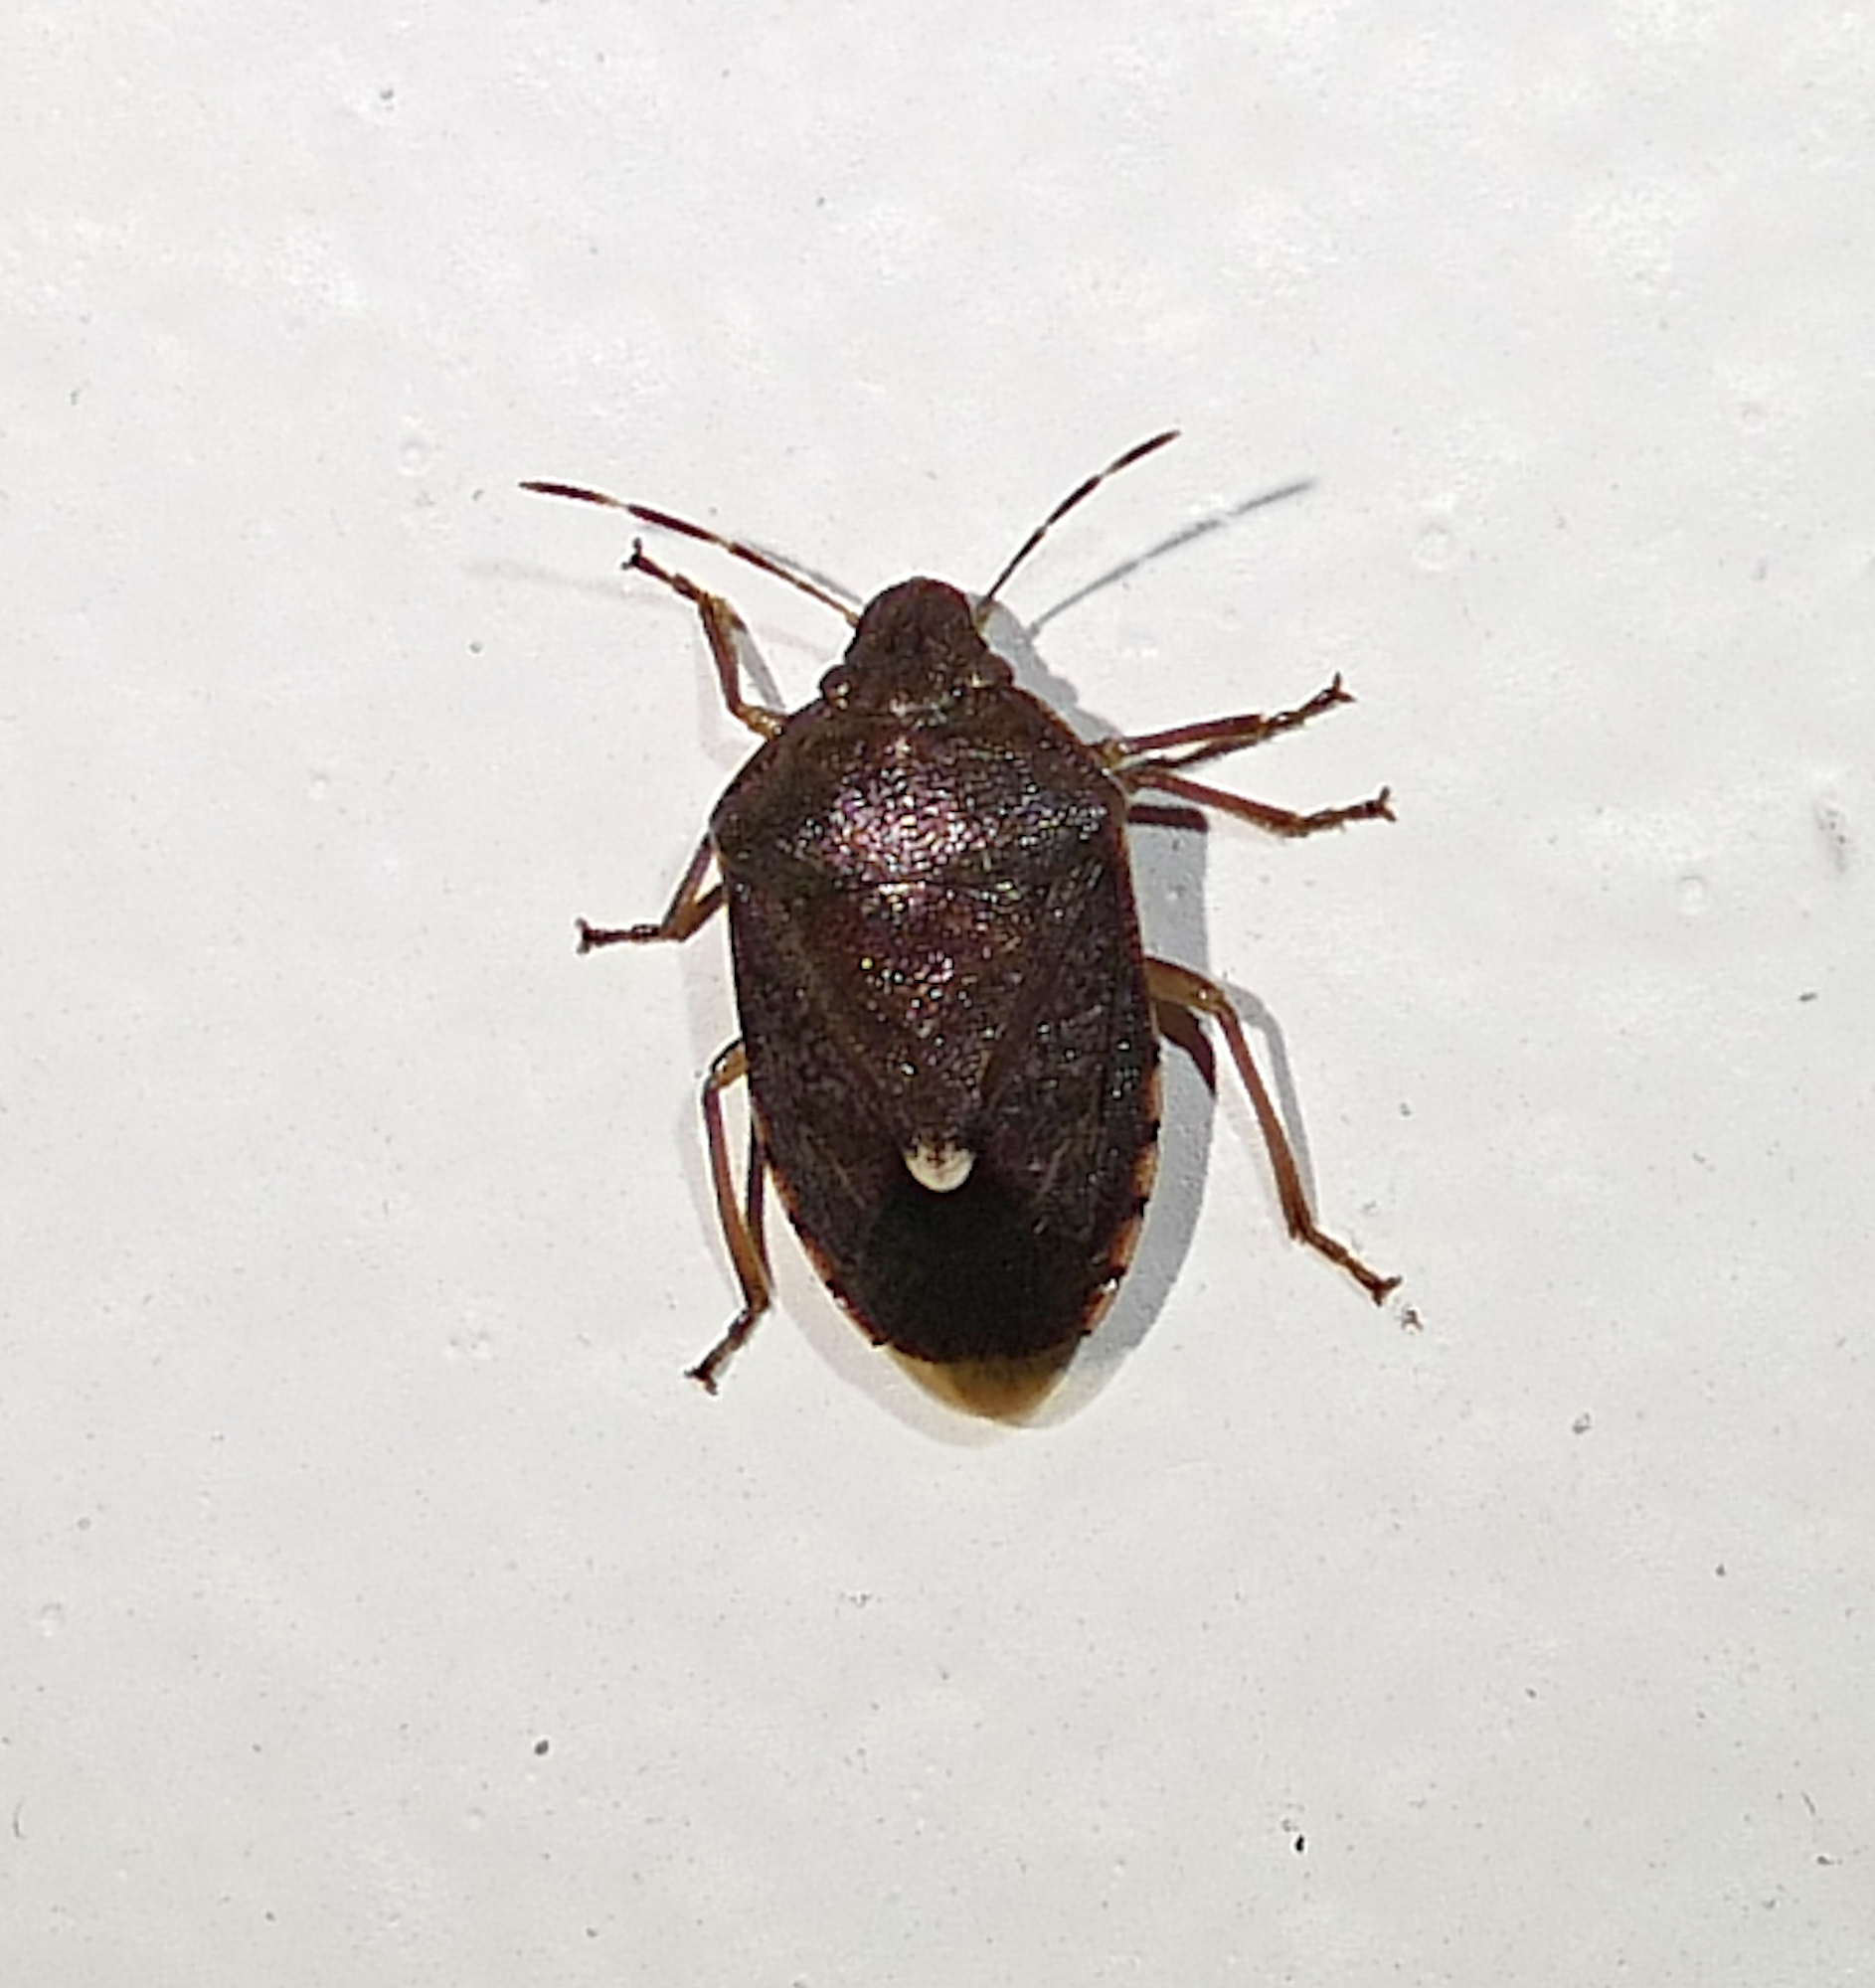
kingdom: Animalia
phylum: Arthropoda
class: Insecta
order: Hemiptera
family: Pentatomidae
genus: Banasa
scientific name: Banasa sordida
